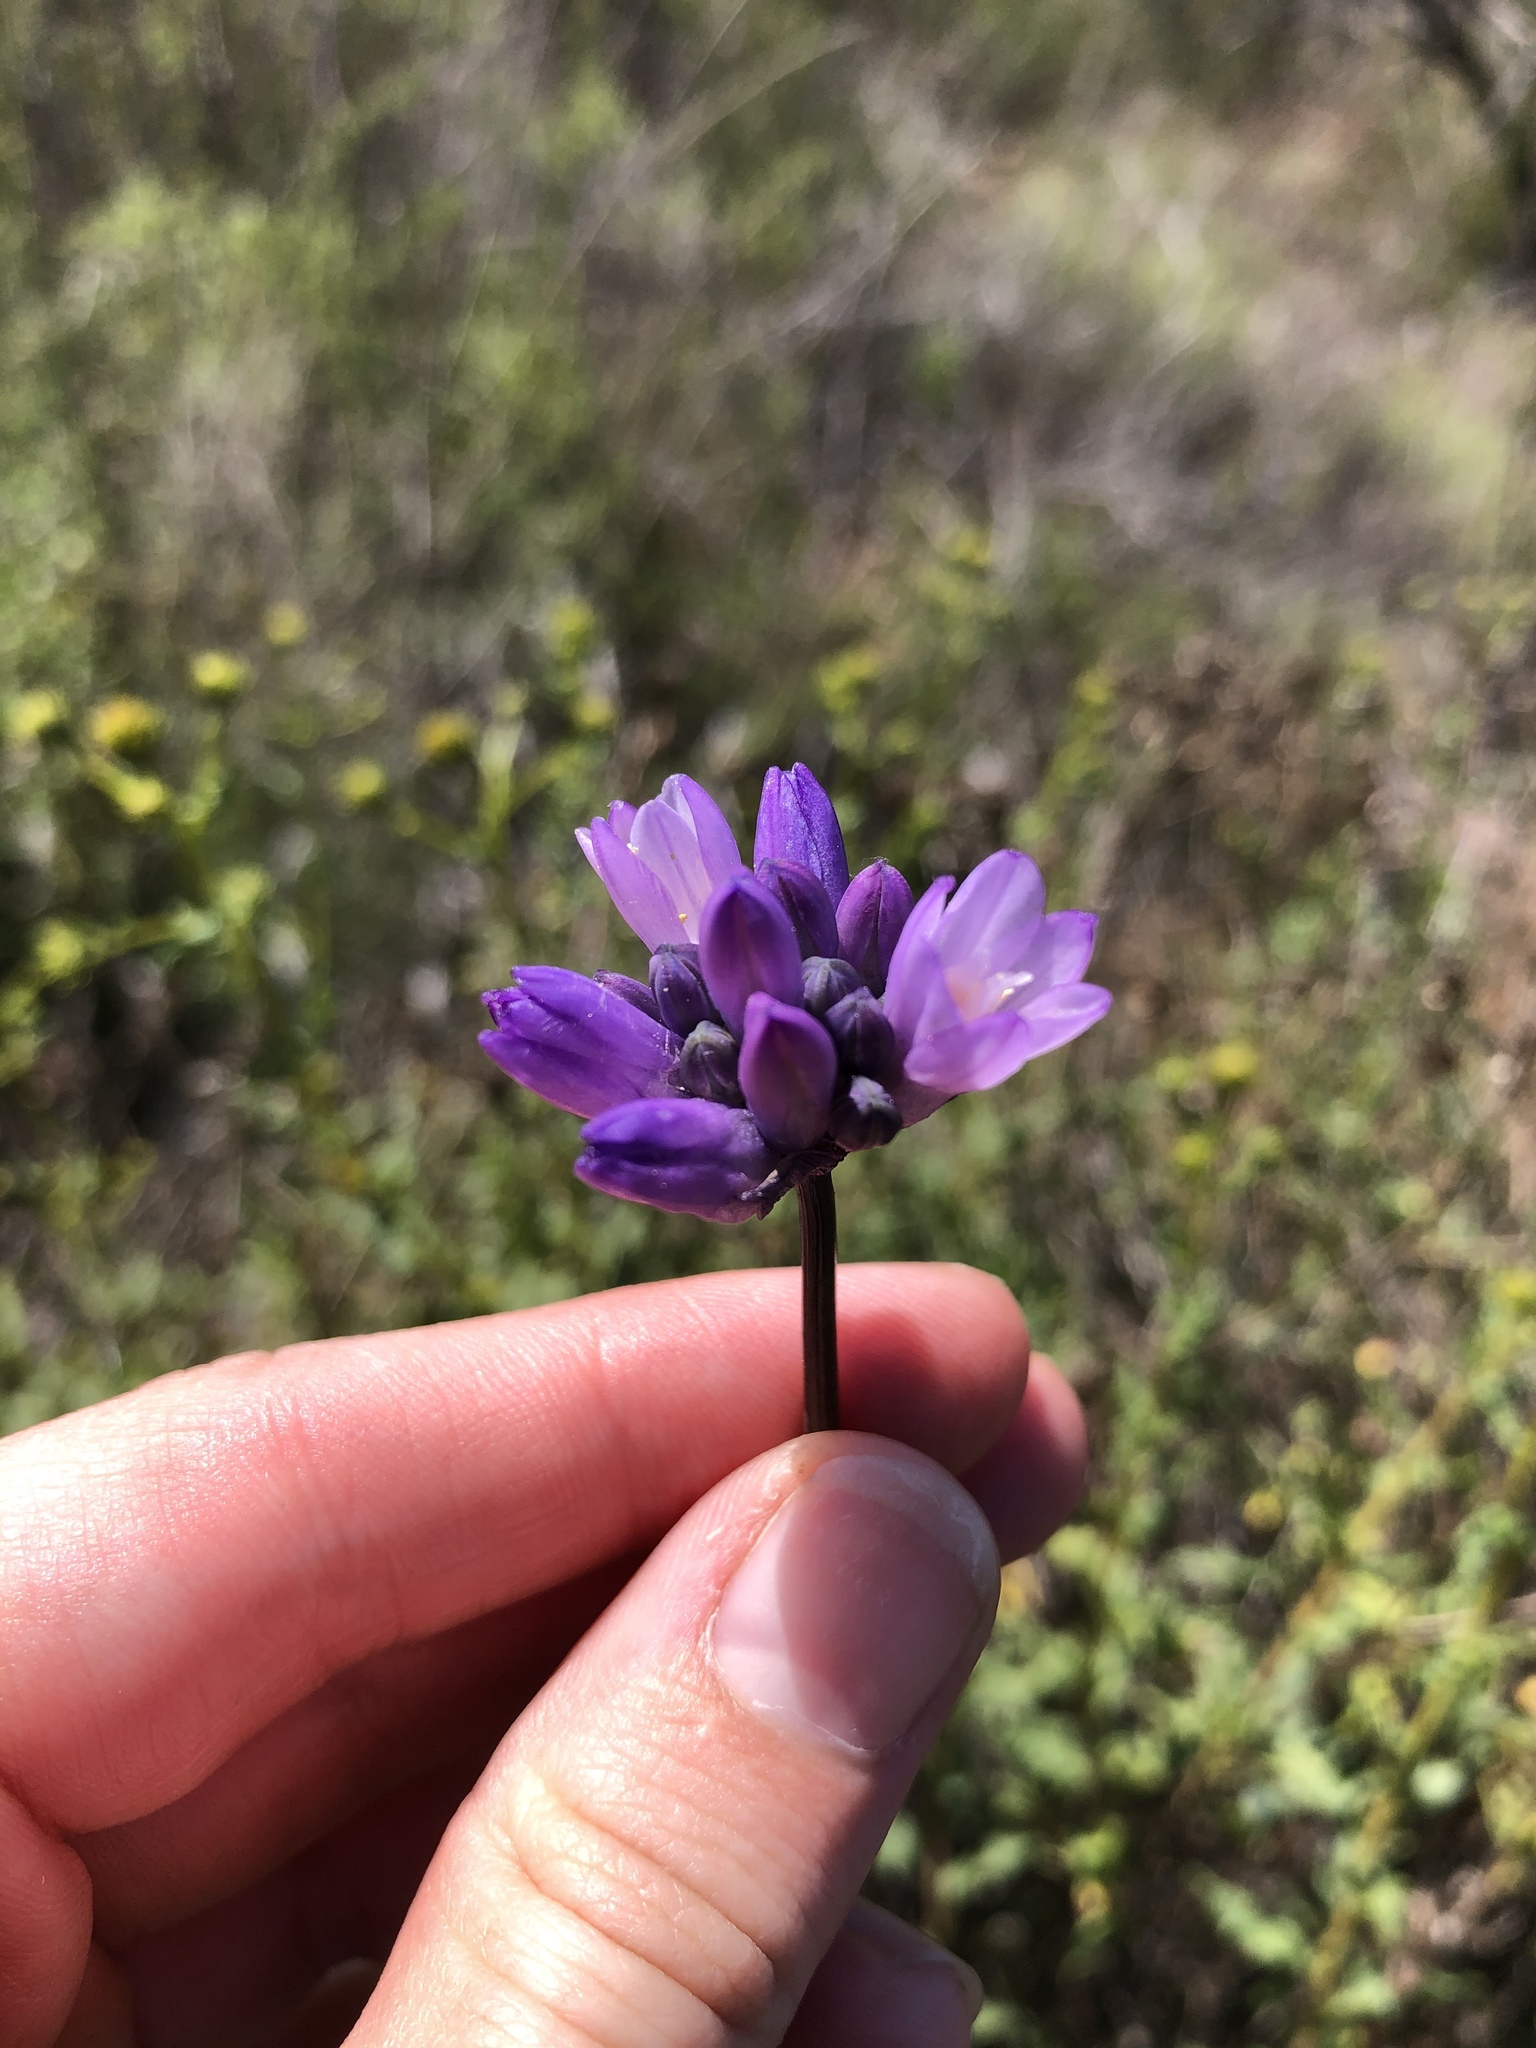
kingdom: Plantae
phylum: Tracheophyta
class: Liliopsida
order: Asparagales
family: Asparagaceae
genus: Dipterostemon
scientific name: Dipterostemon capitatus
